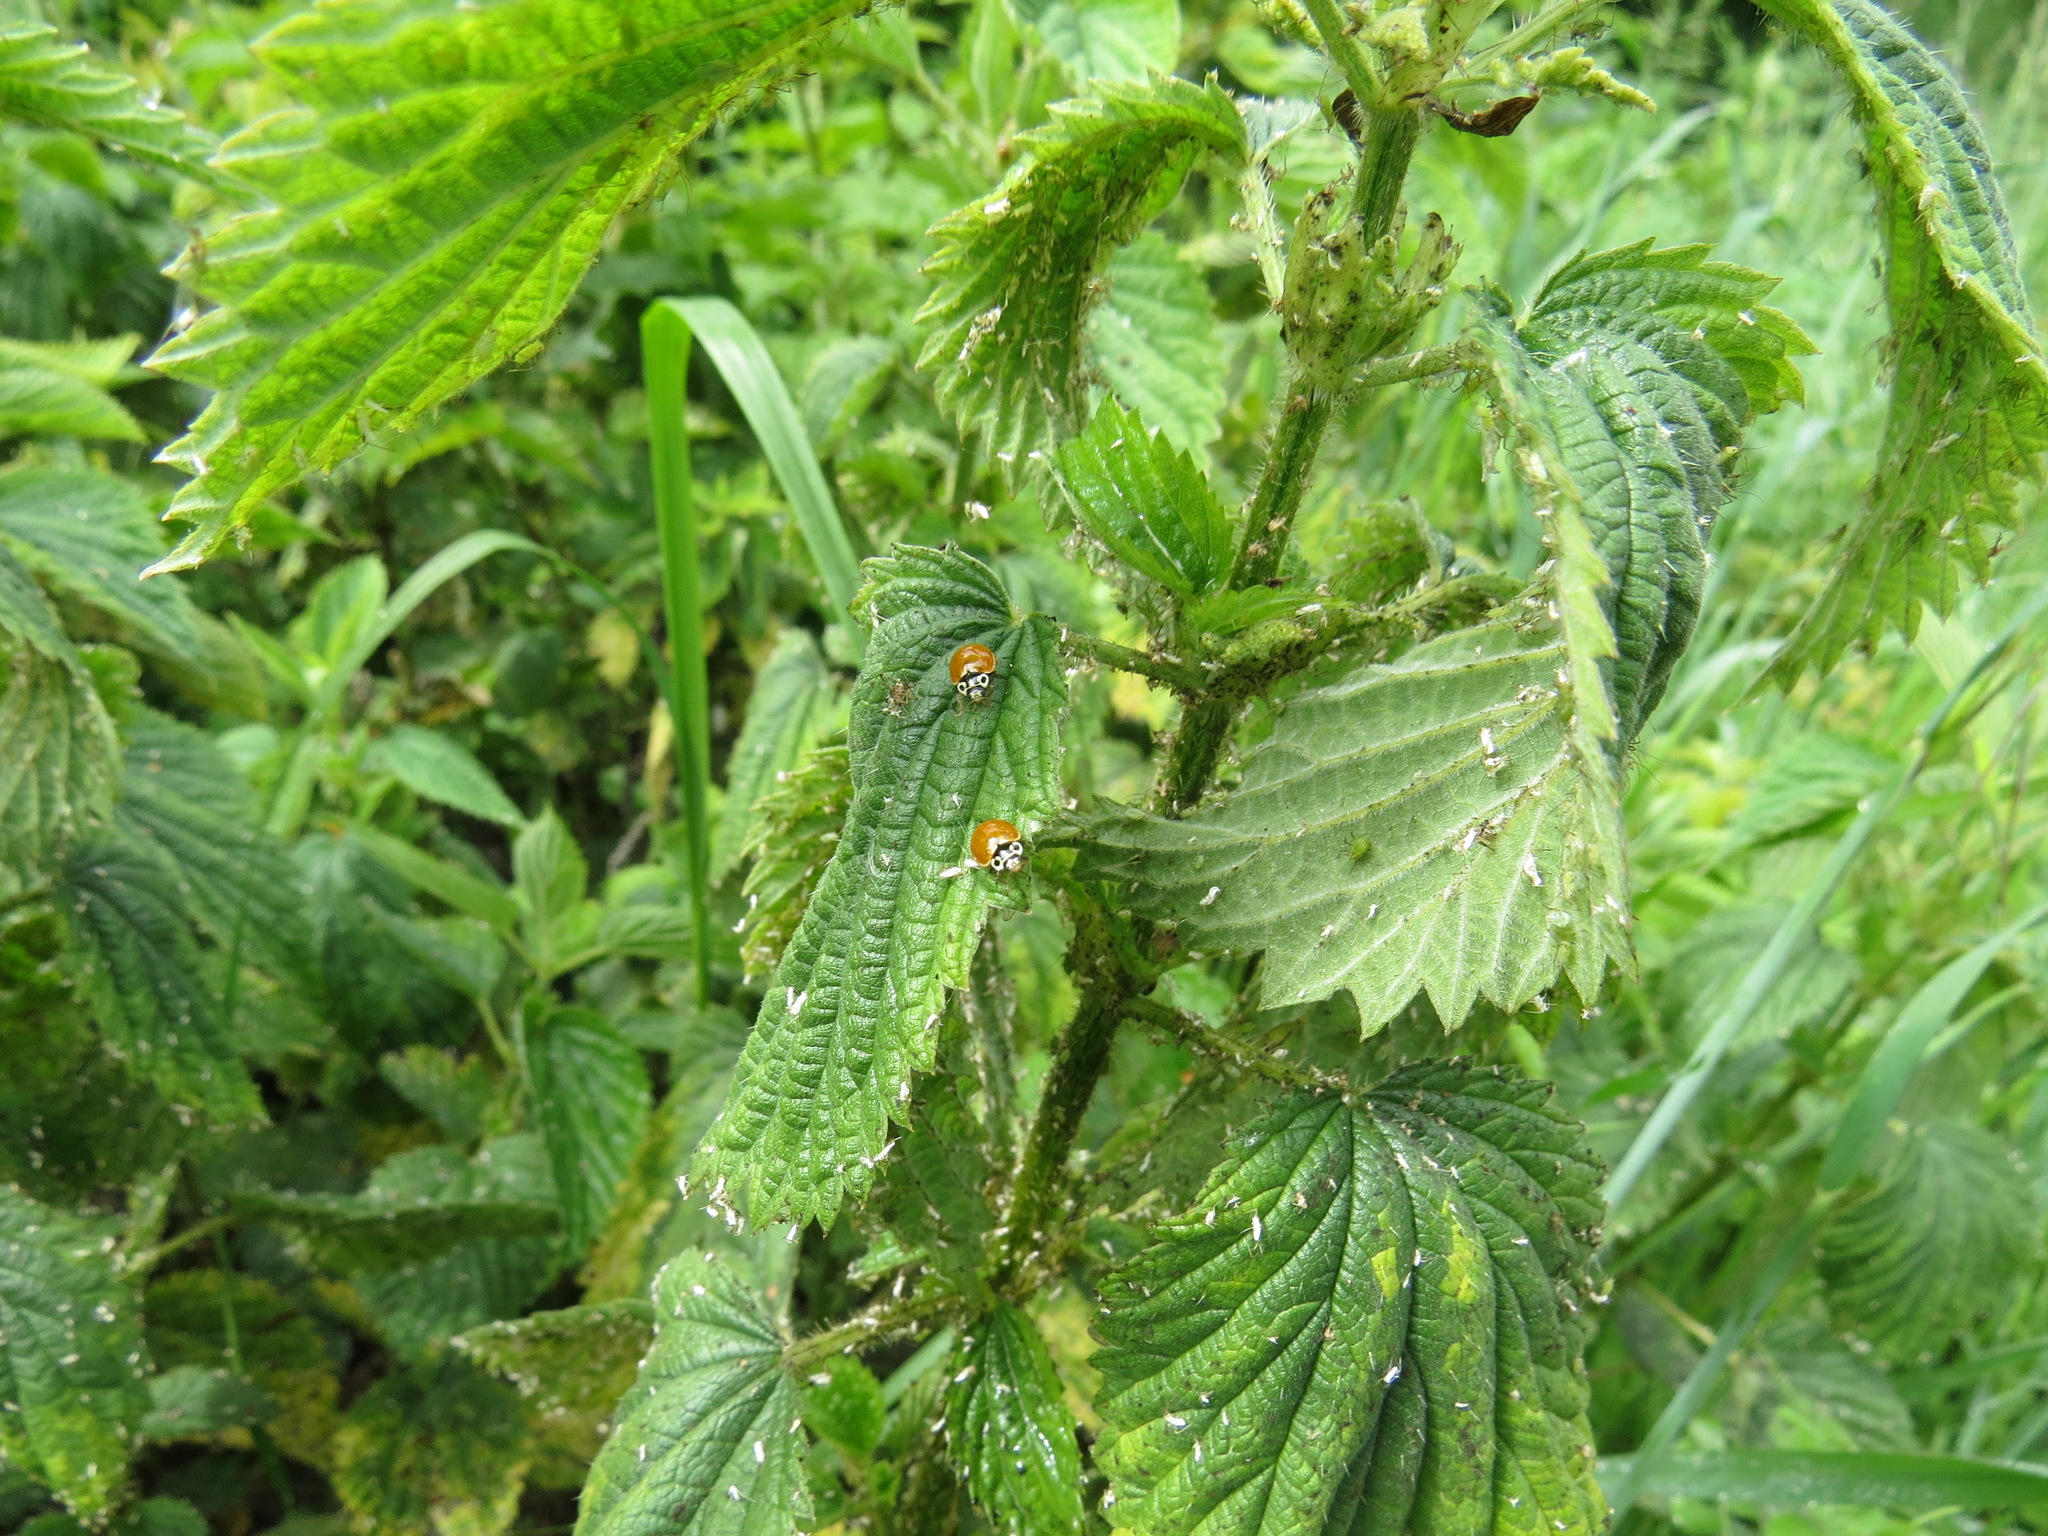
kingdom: Animalia
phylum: Arthropoda
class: Insecta
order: Coleoptera
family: Coccinellidae
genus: Cycloneda
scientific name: Cycloneda polita
